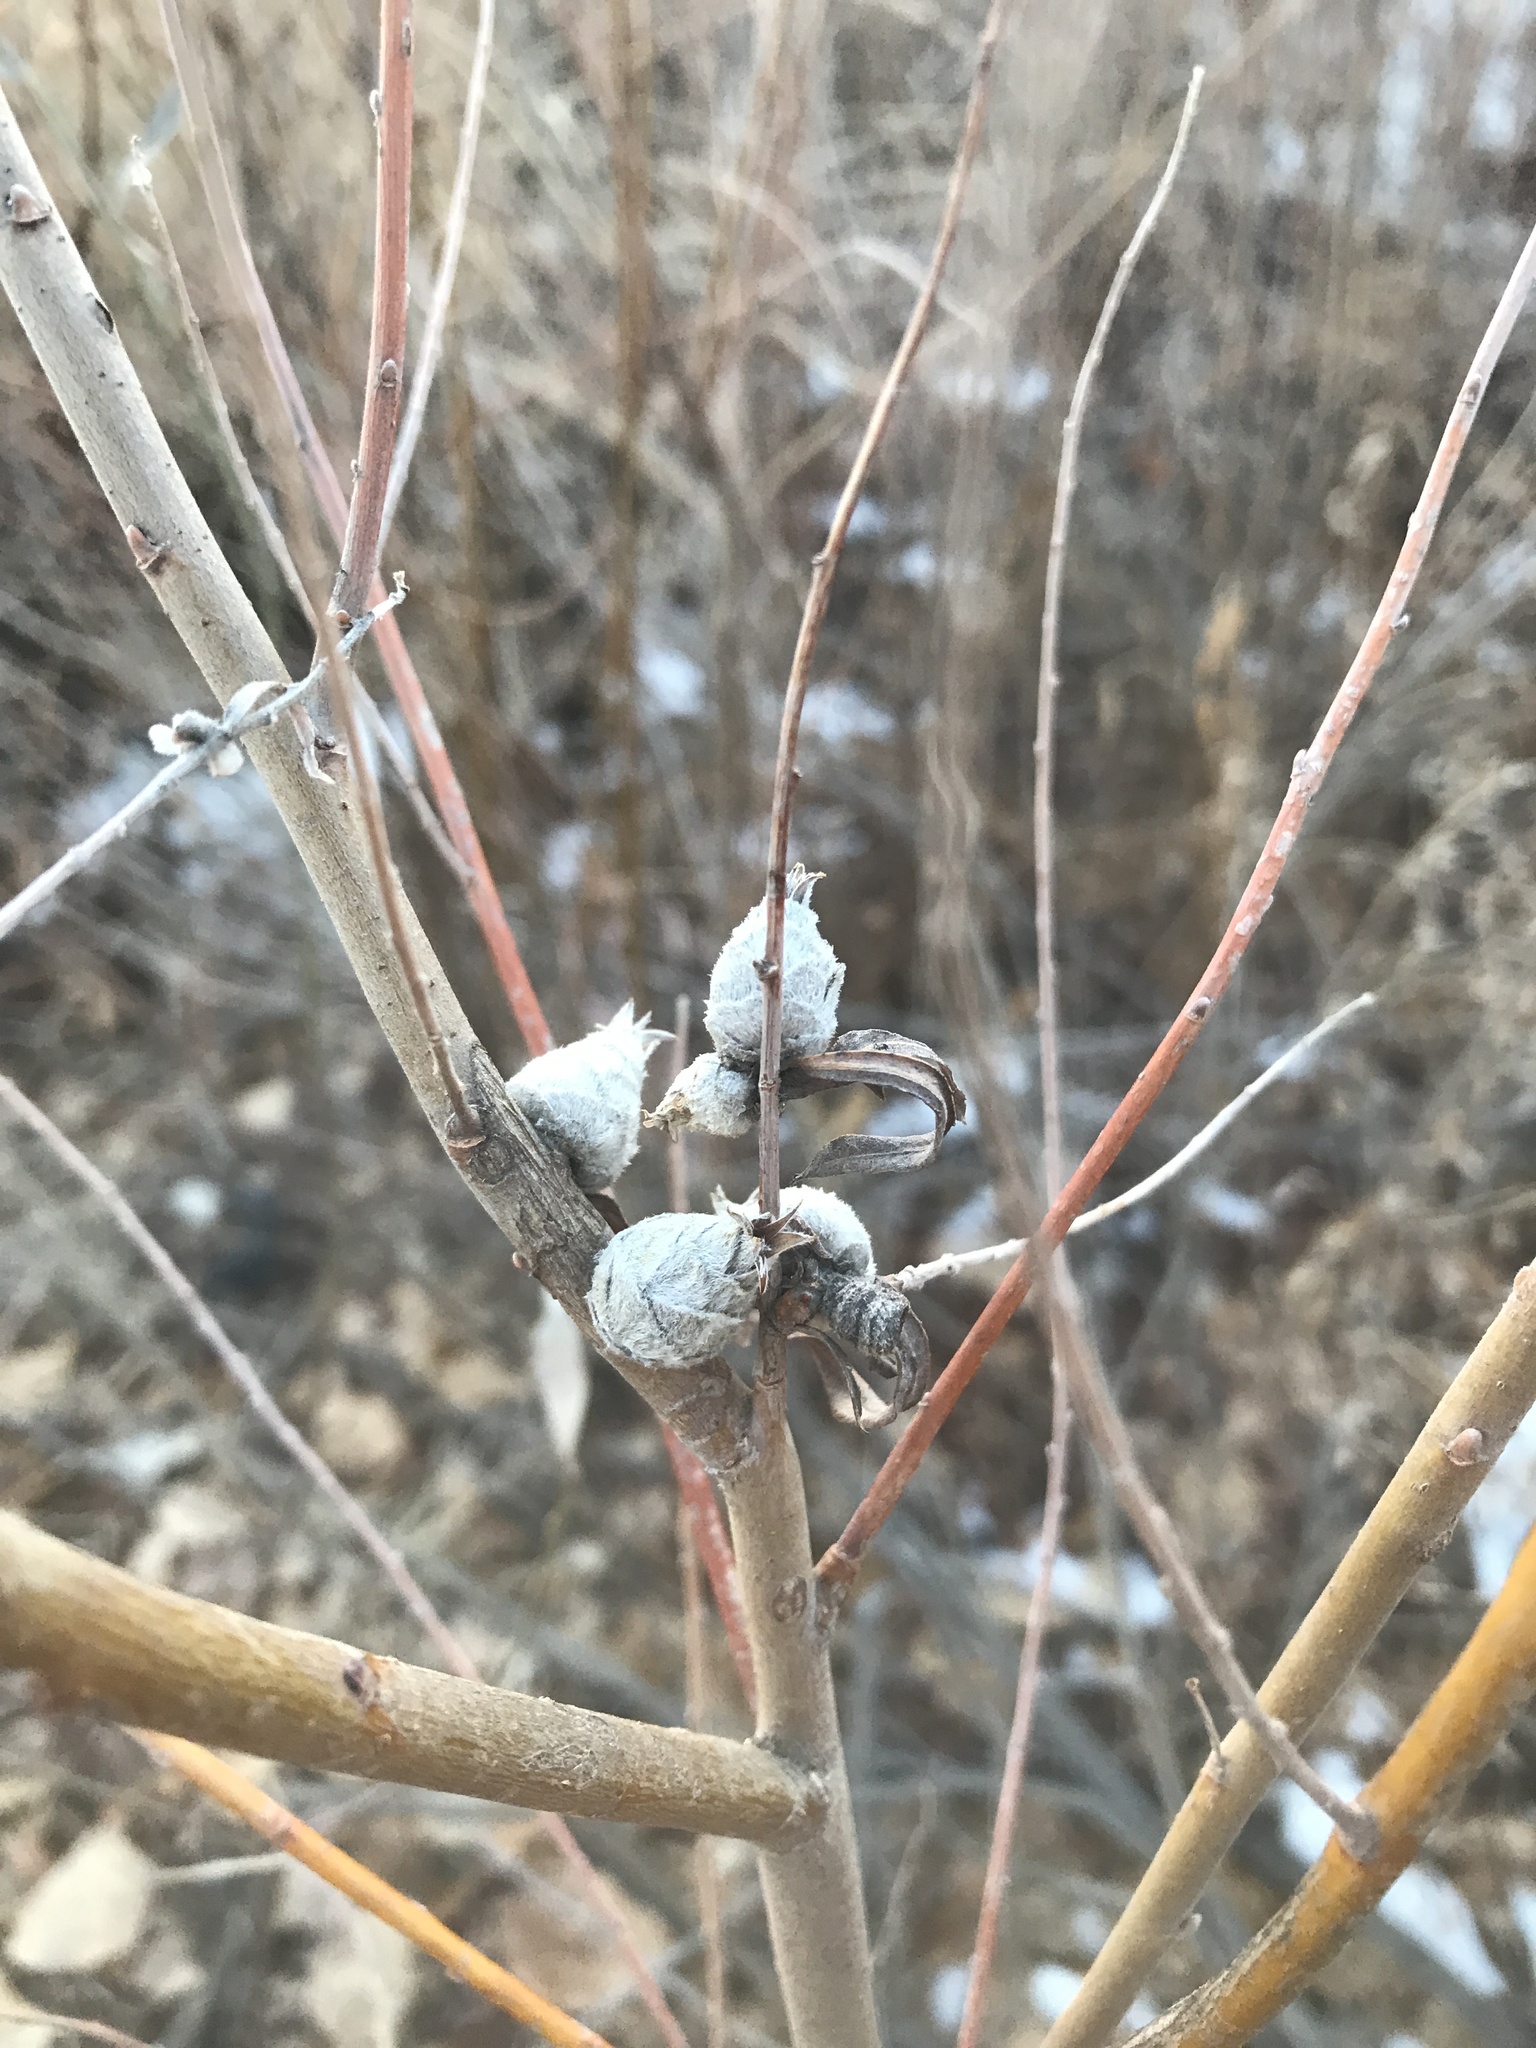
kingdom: Animalia
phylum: Arthropoda
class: Insecta
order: Diptera
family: Cecidomyiidae
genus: Rabdophaga
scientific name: Rabdophaga strobiloides
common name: Willow pinecone gall midge
